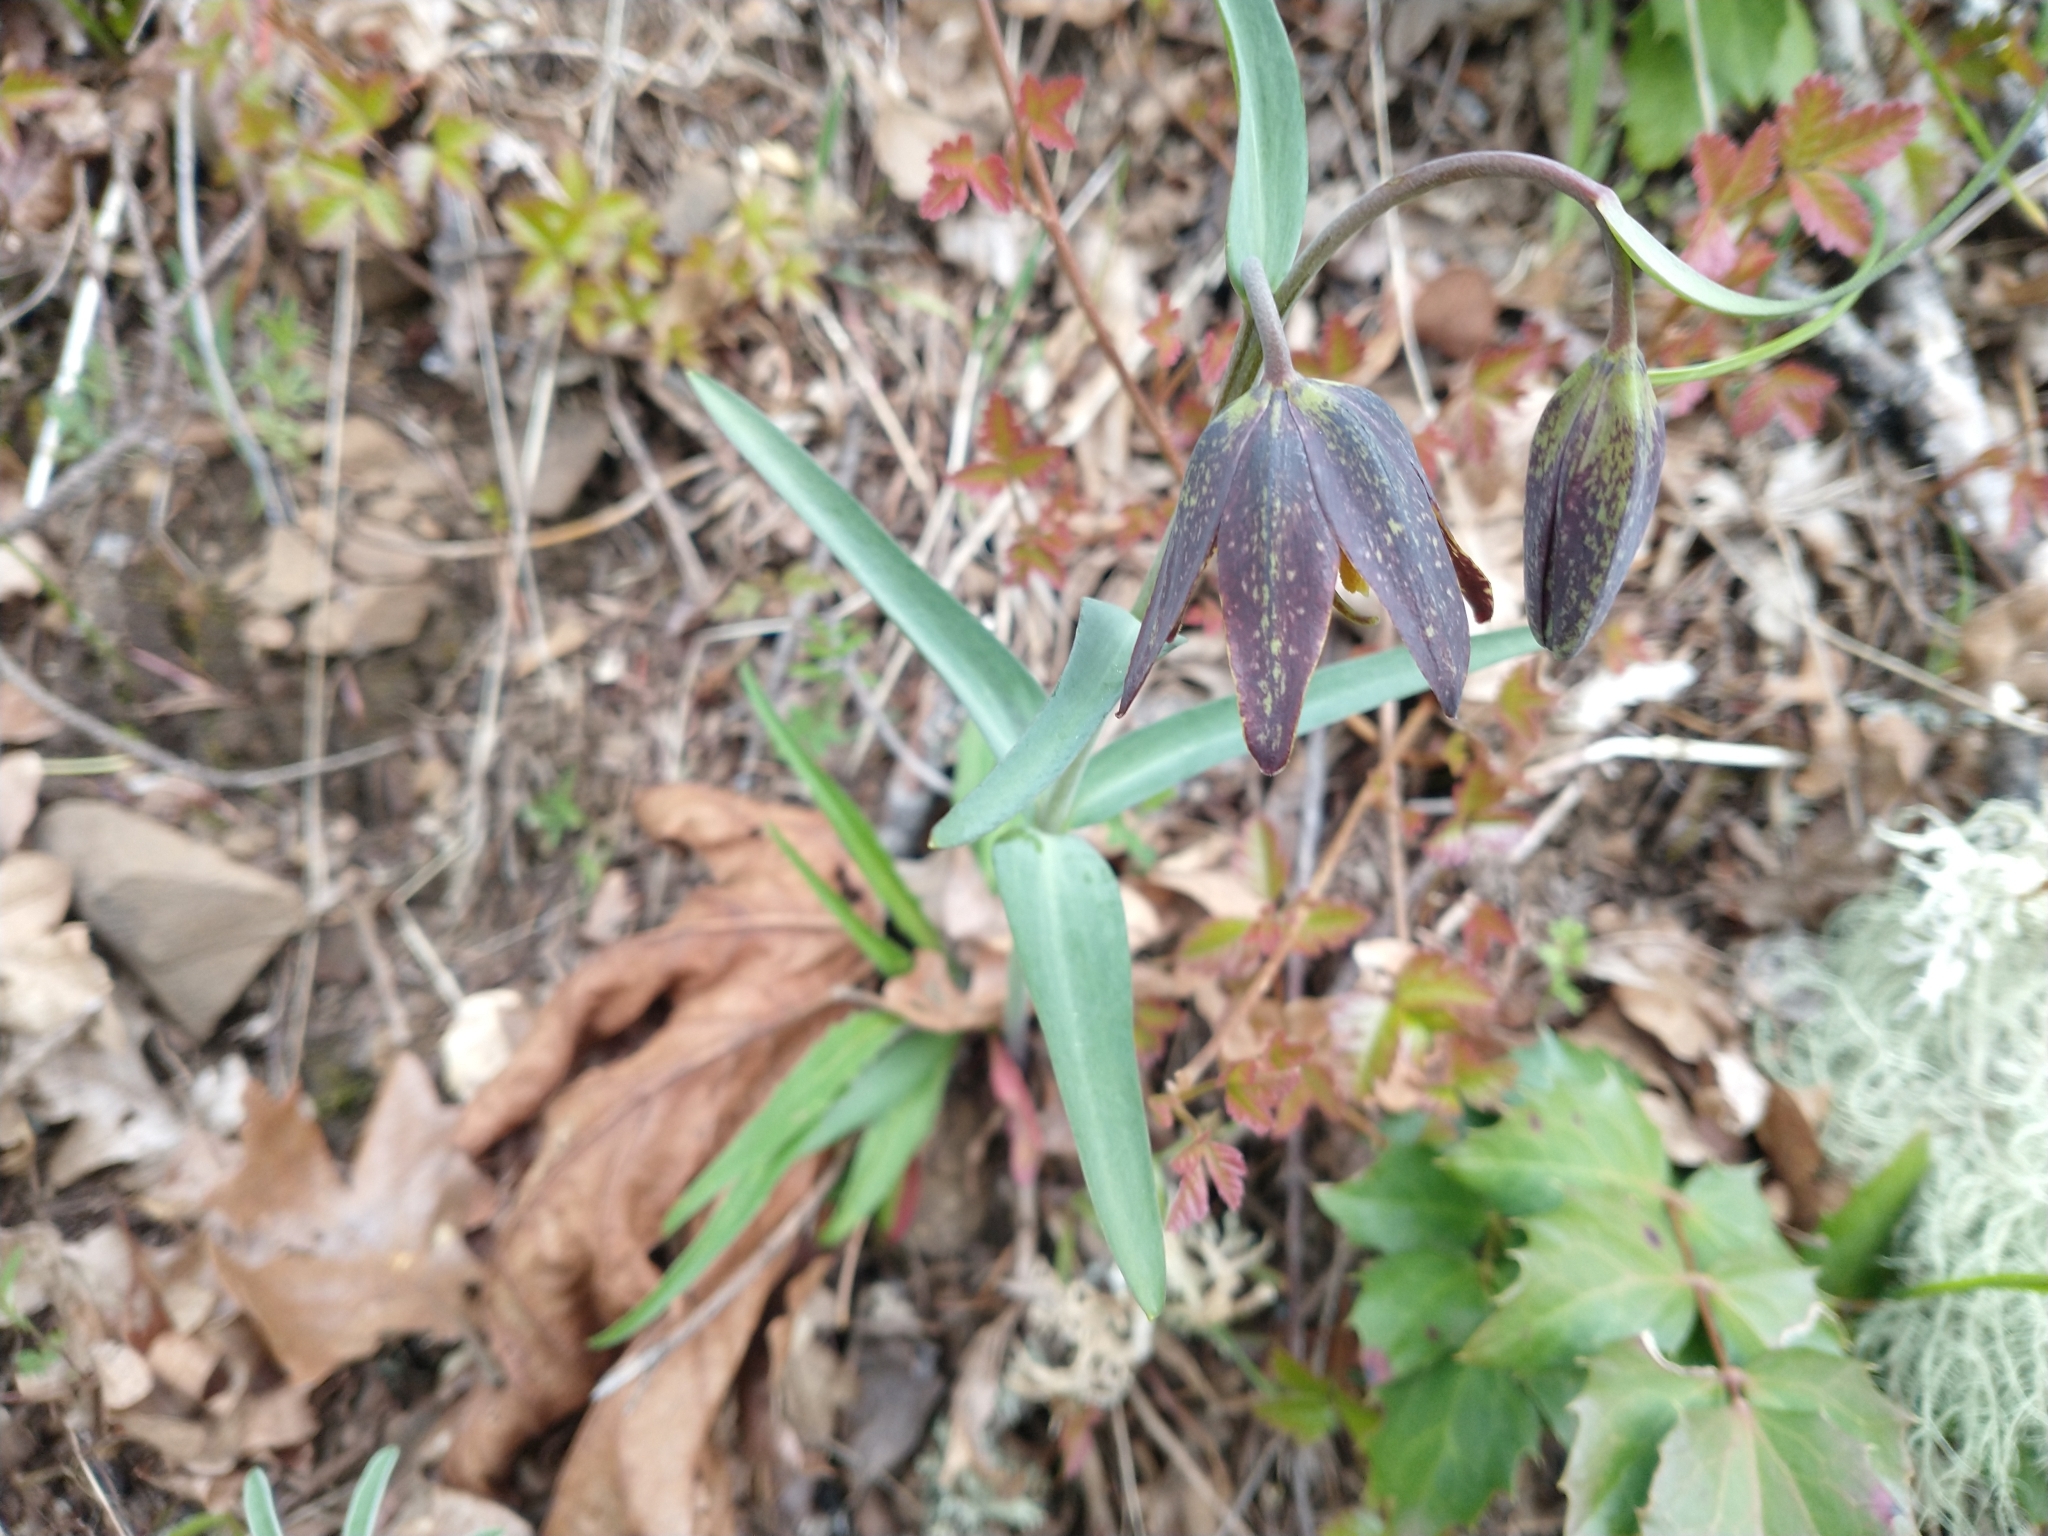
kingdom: Plantae
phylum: Tracheophyta
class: Liliopsida
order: Liliales
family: Liliaceae
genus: Fritillaria
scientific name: Fritillaria affinis
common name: Ojai fritillary
